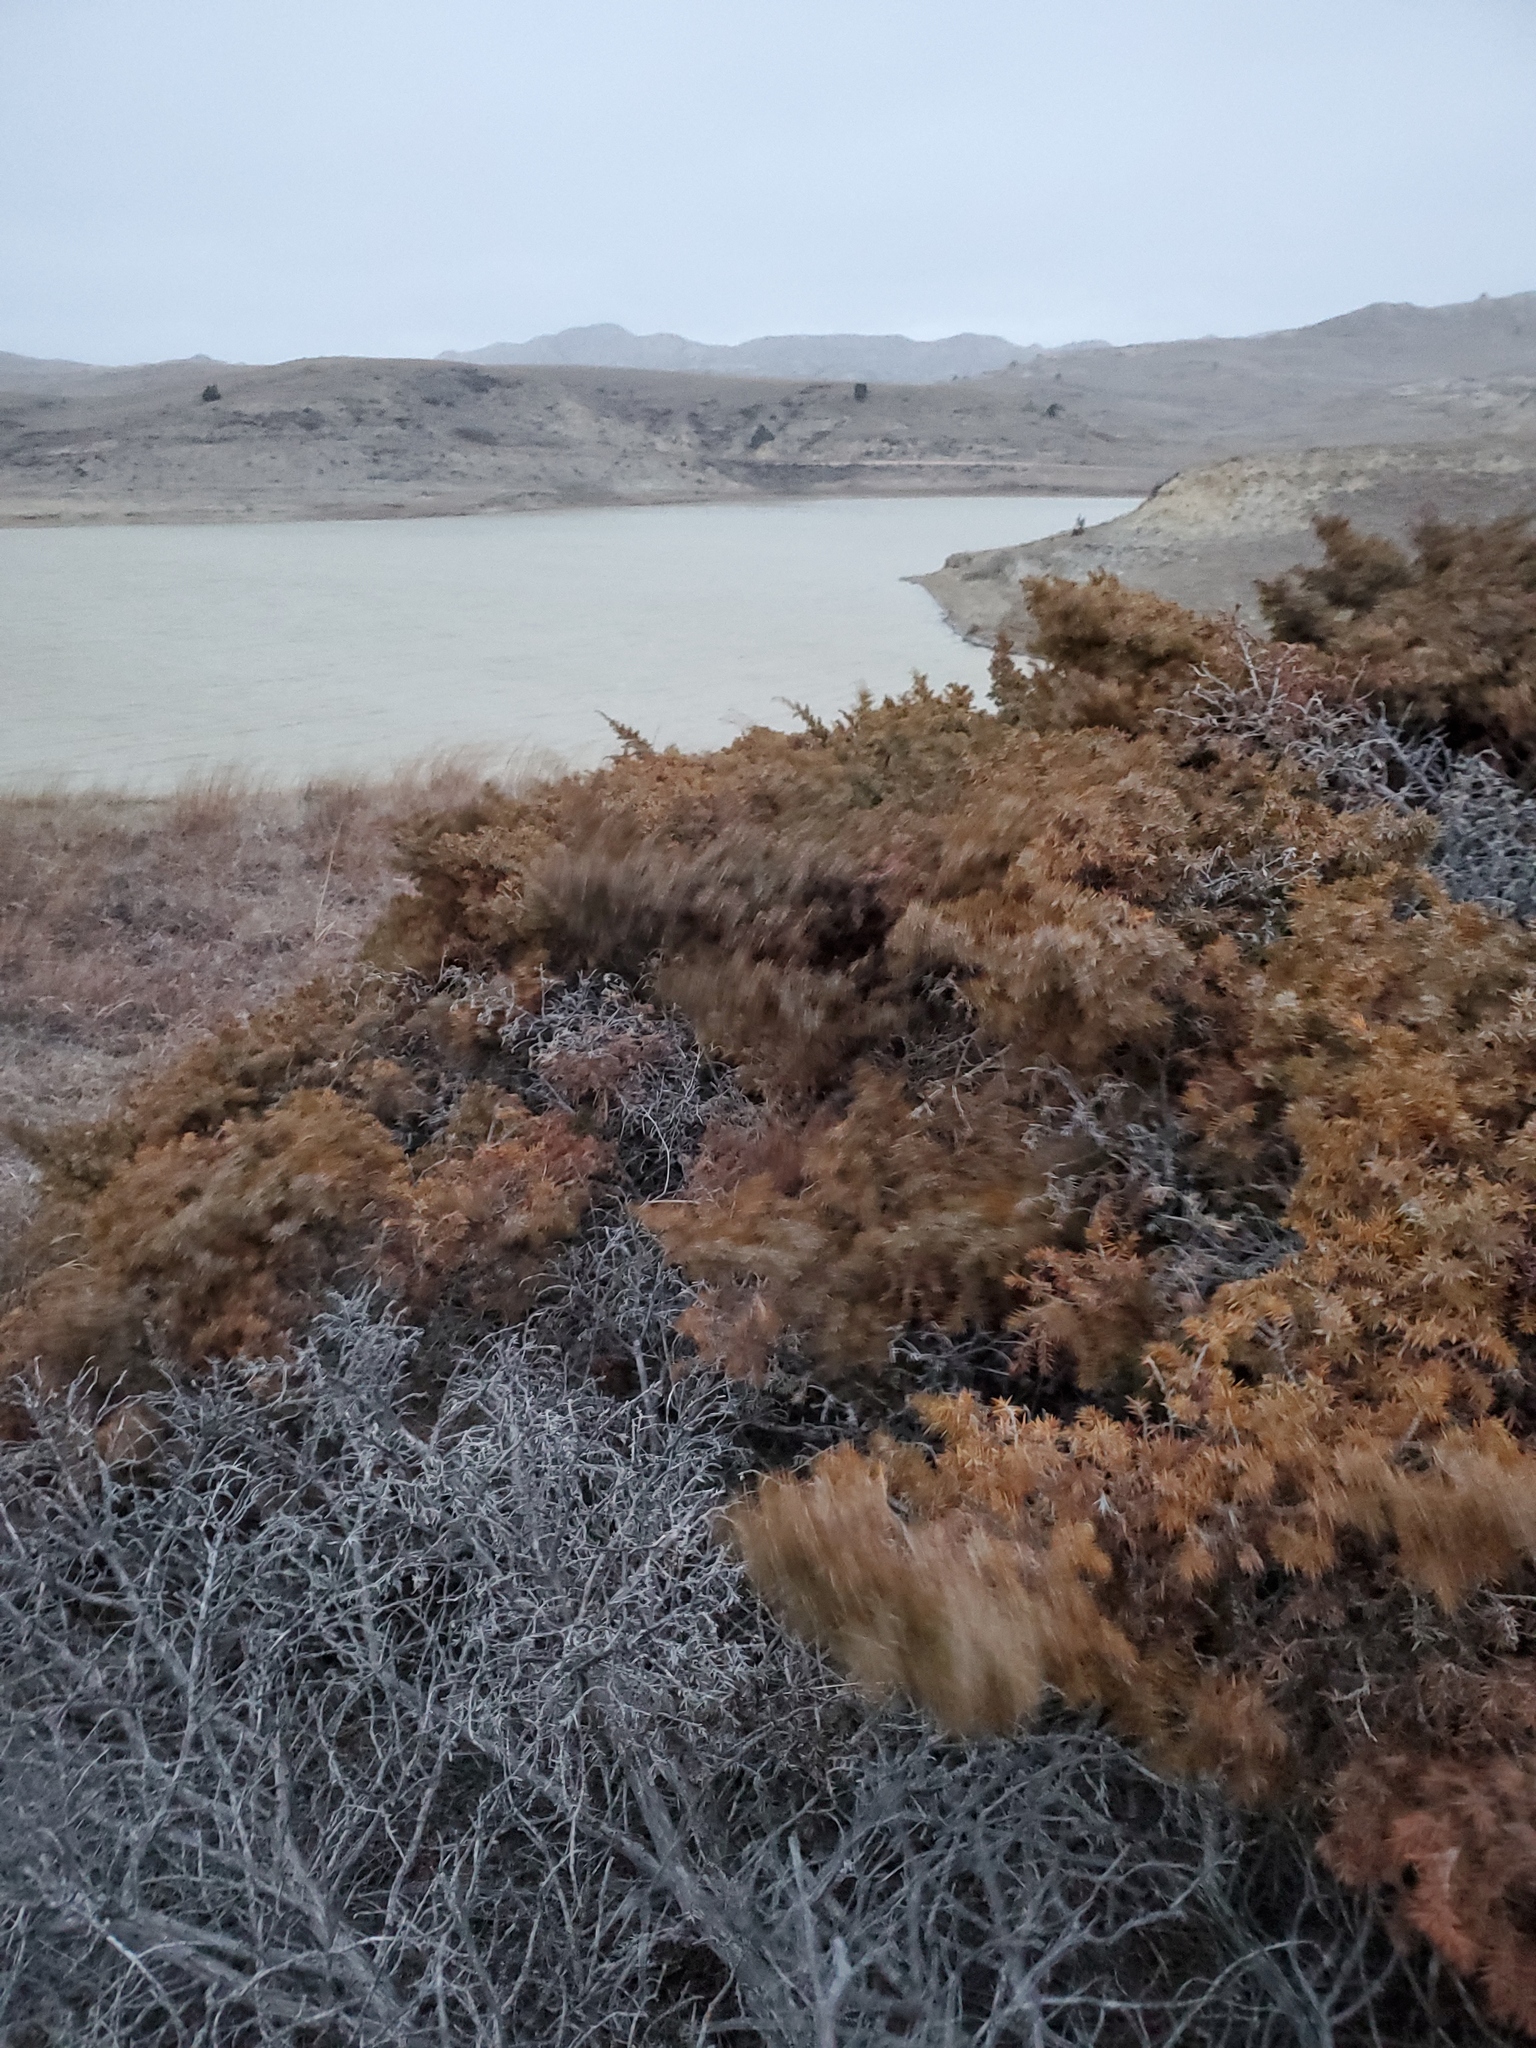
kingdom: Plantae
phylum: Tracheophyta
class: Pinopsida
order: Pinales
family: Cupressaceae
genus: Juniperus
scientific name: Juniperus communis
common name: Common juniper
